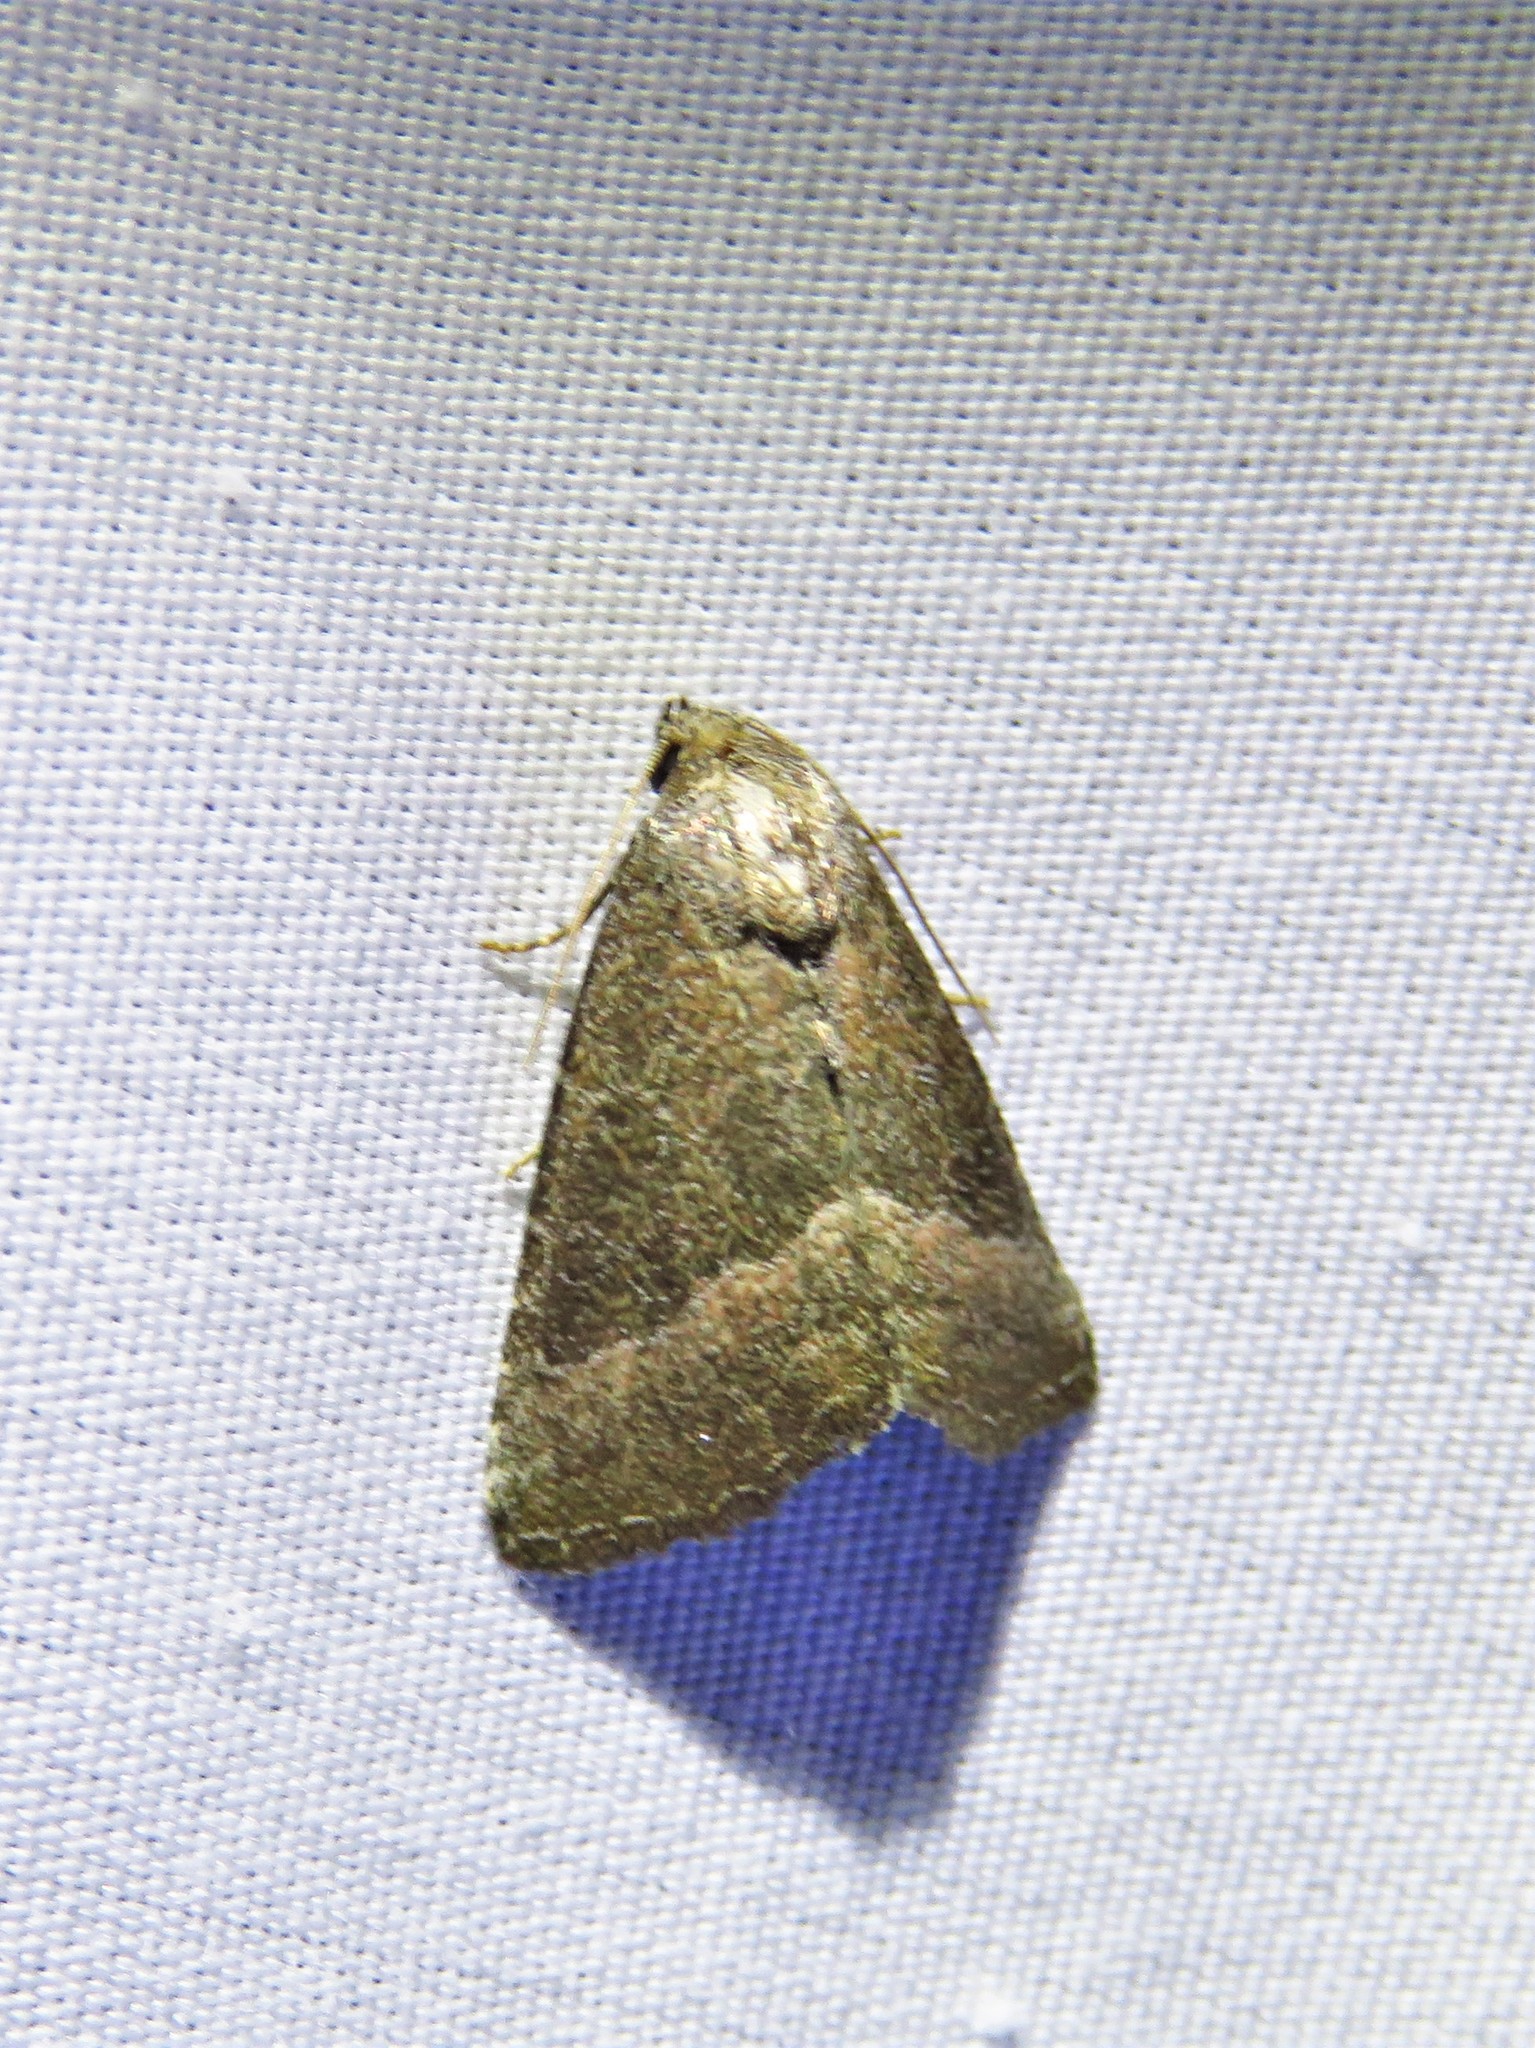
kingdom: Animalia
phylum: Arthropoda
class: Insecta
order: Lepidoptera
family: Noctuidae
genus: Ogdoconta
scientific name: Ogdoconta cinereola
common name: Common pinkband
